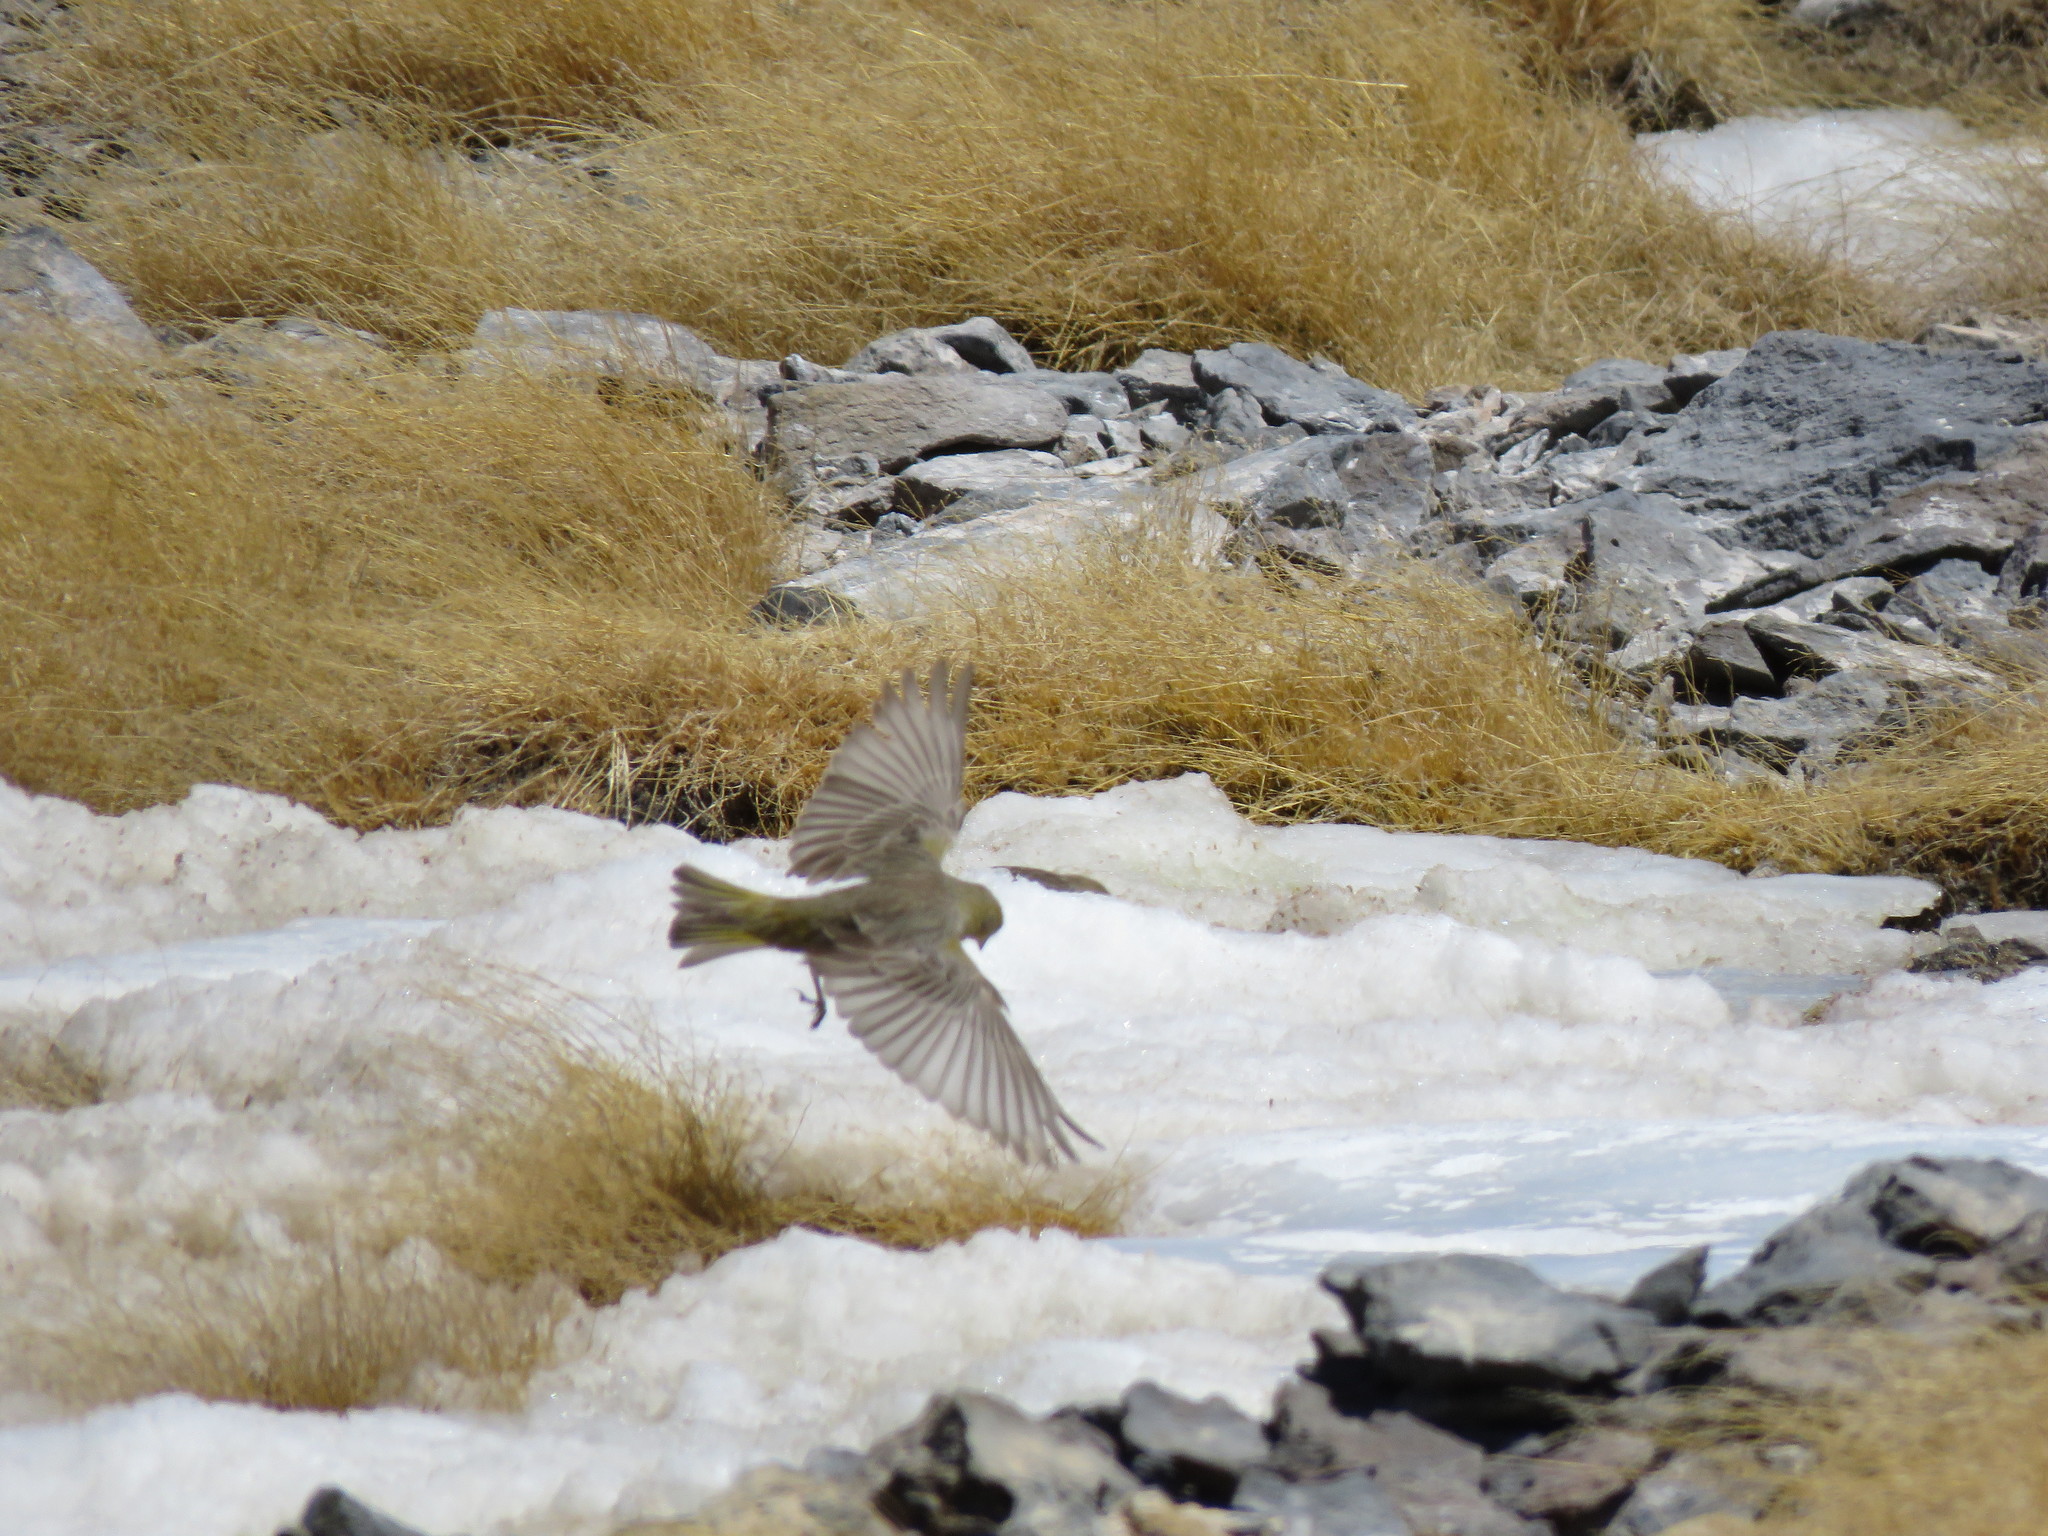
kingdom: Animalia
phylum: Chordata
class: Aves
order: Passeriformes
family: Thraupidae
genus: Sicalis
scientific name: Sicalis olivascens
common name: Greenish yellow finch
